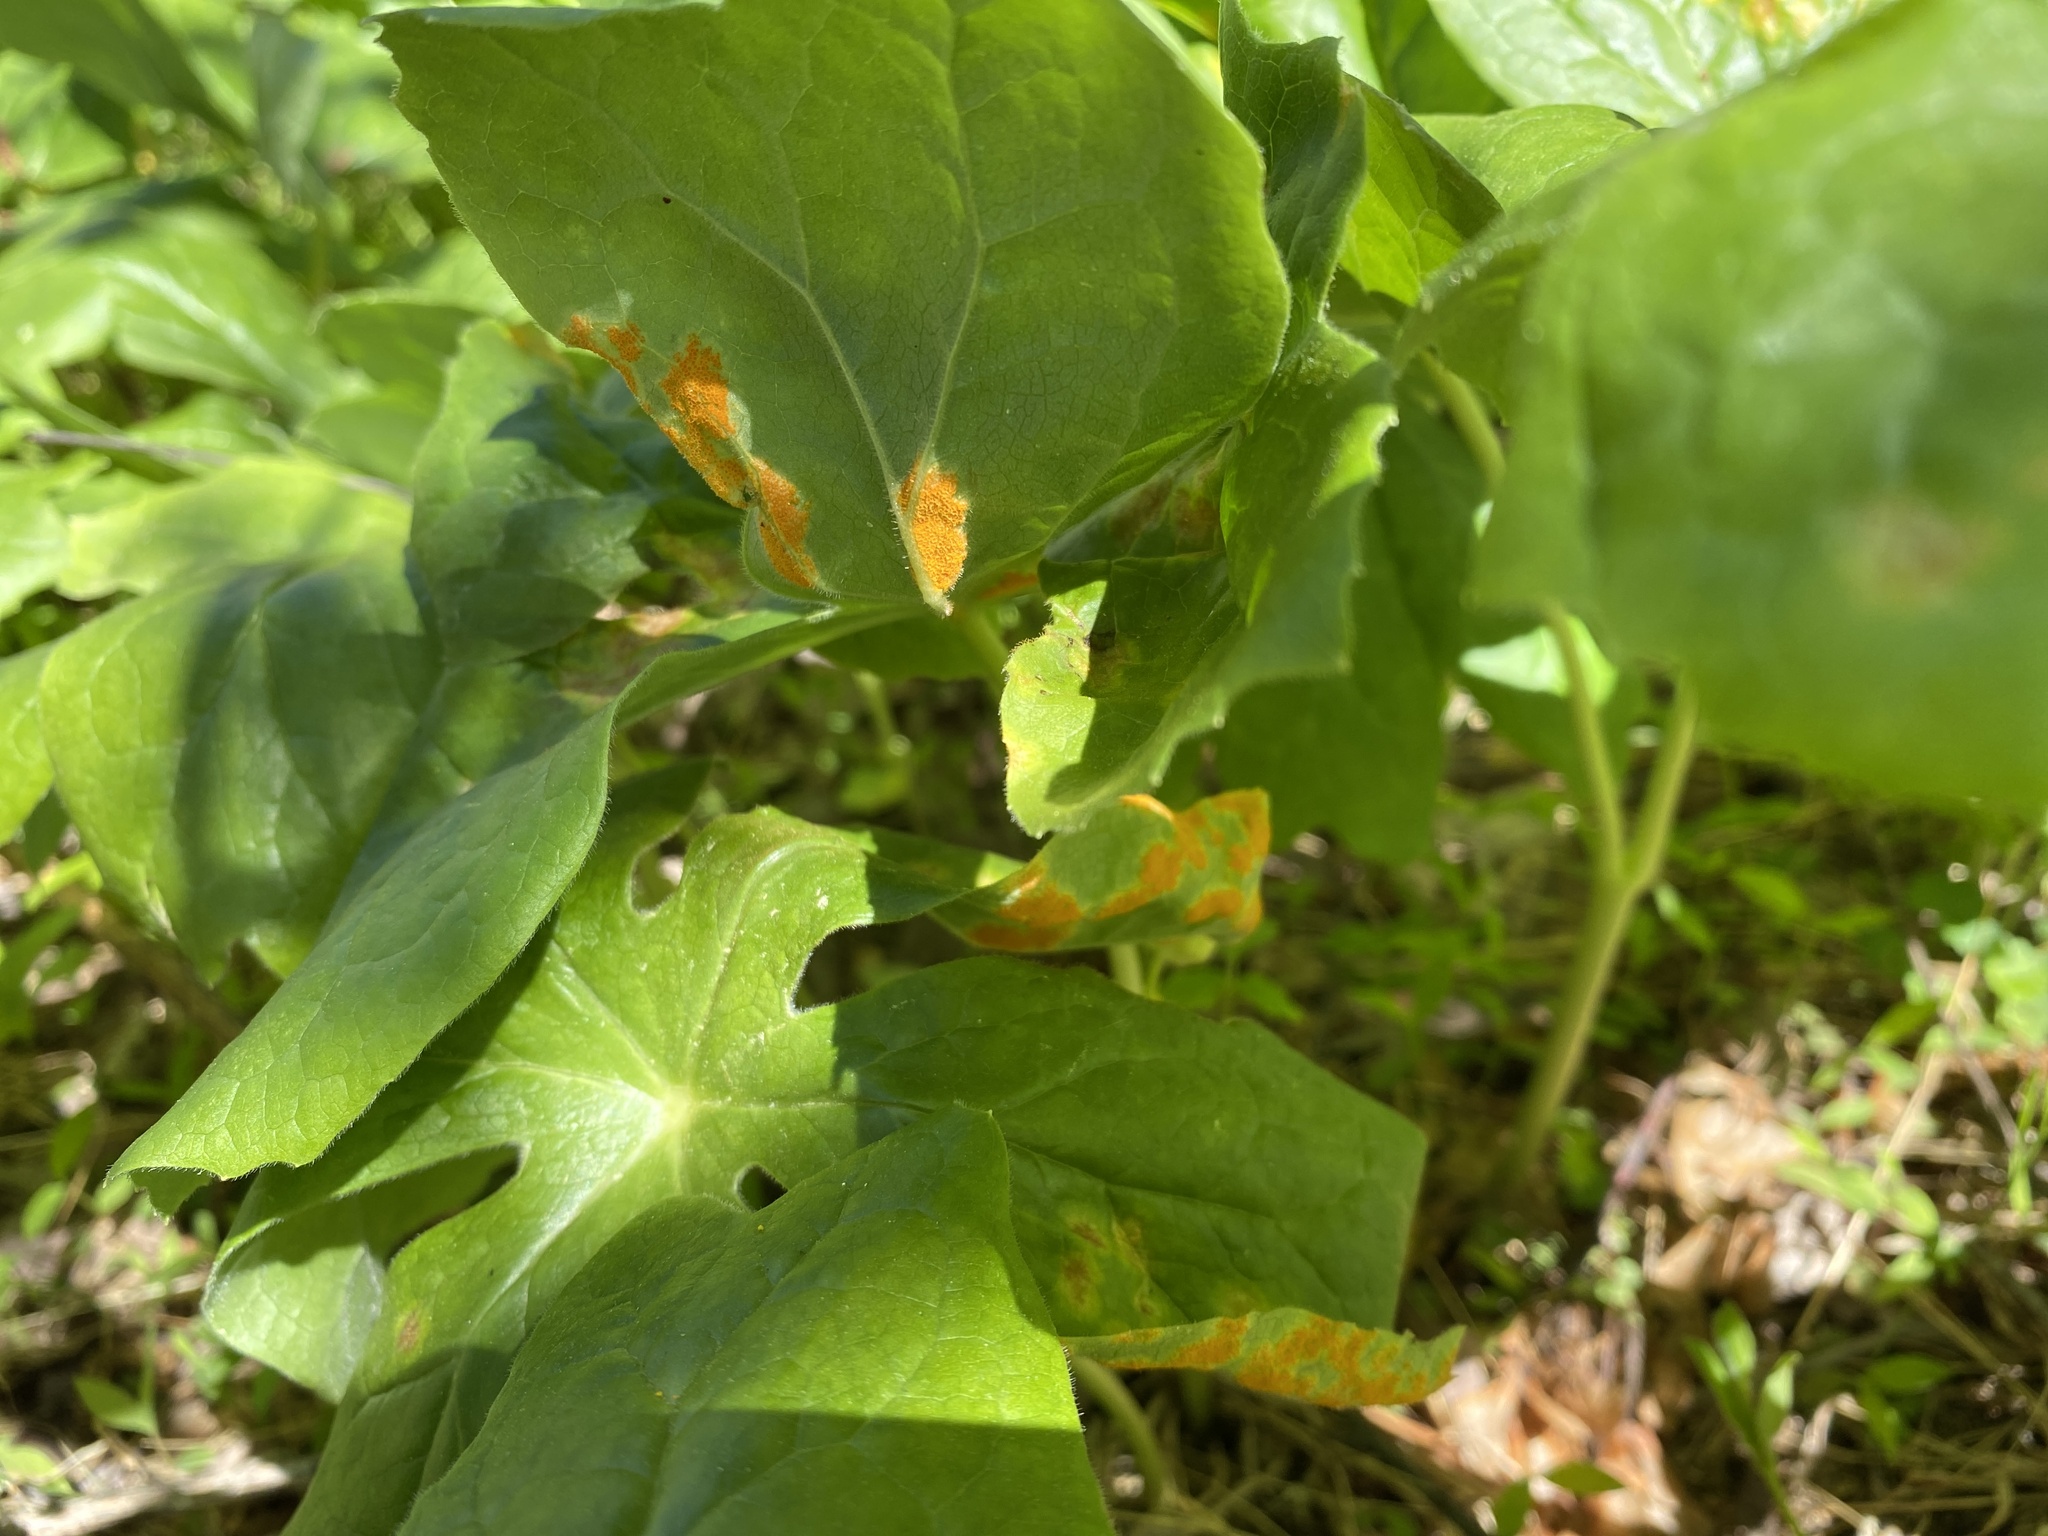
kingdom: Fungi
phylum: Basidiomycota
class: Pucciniomycetes
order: Pucciniales
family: Pucciniaceae
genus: Puccinia
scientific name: Puccinia podophylli
